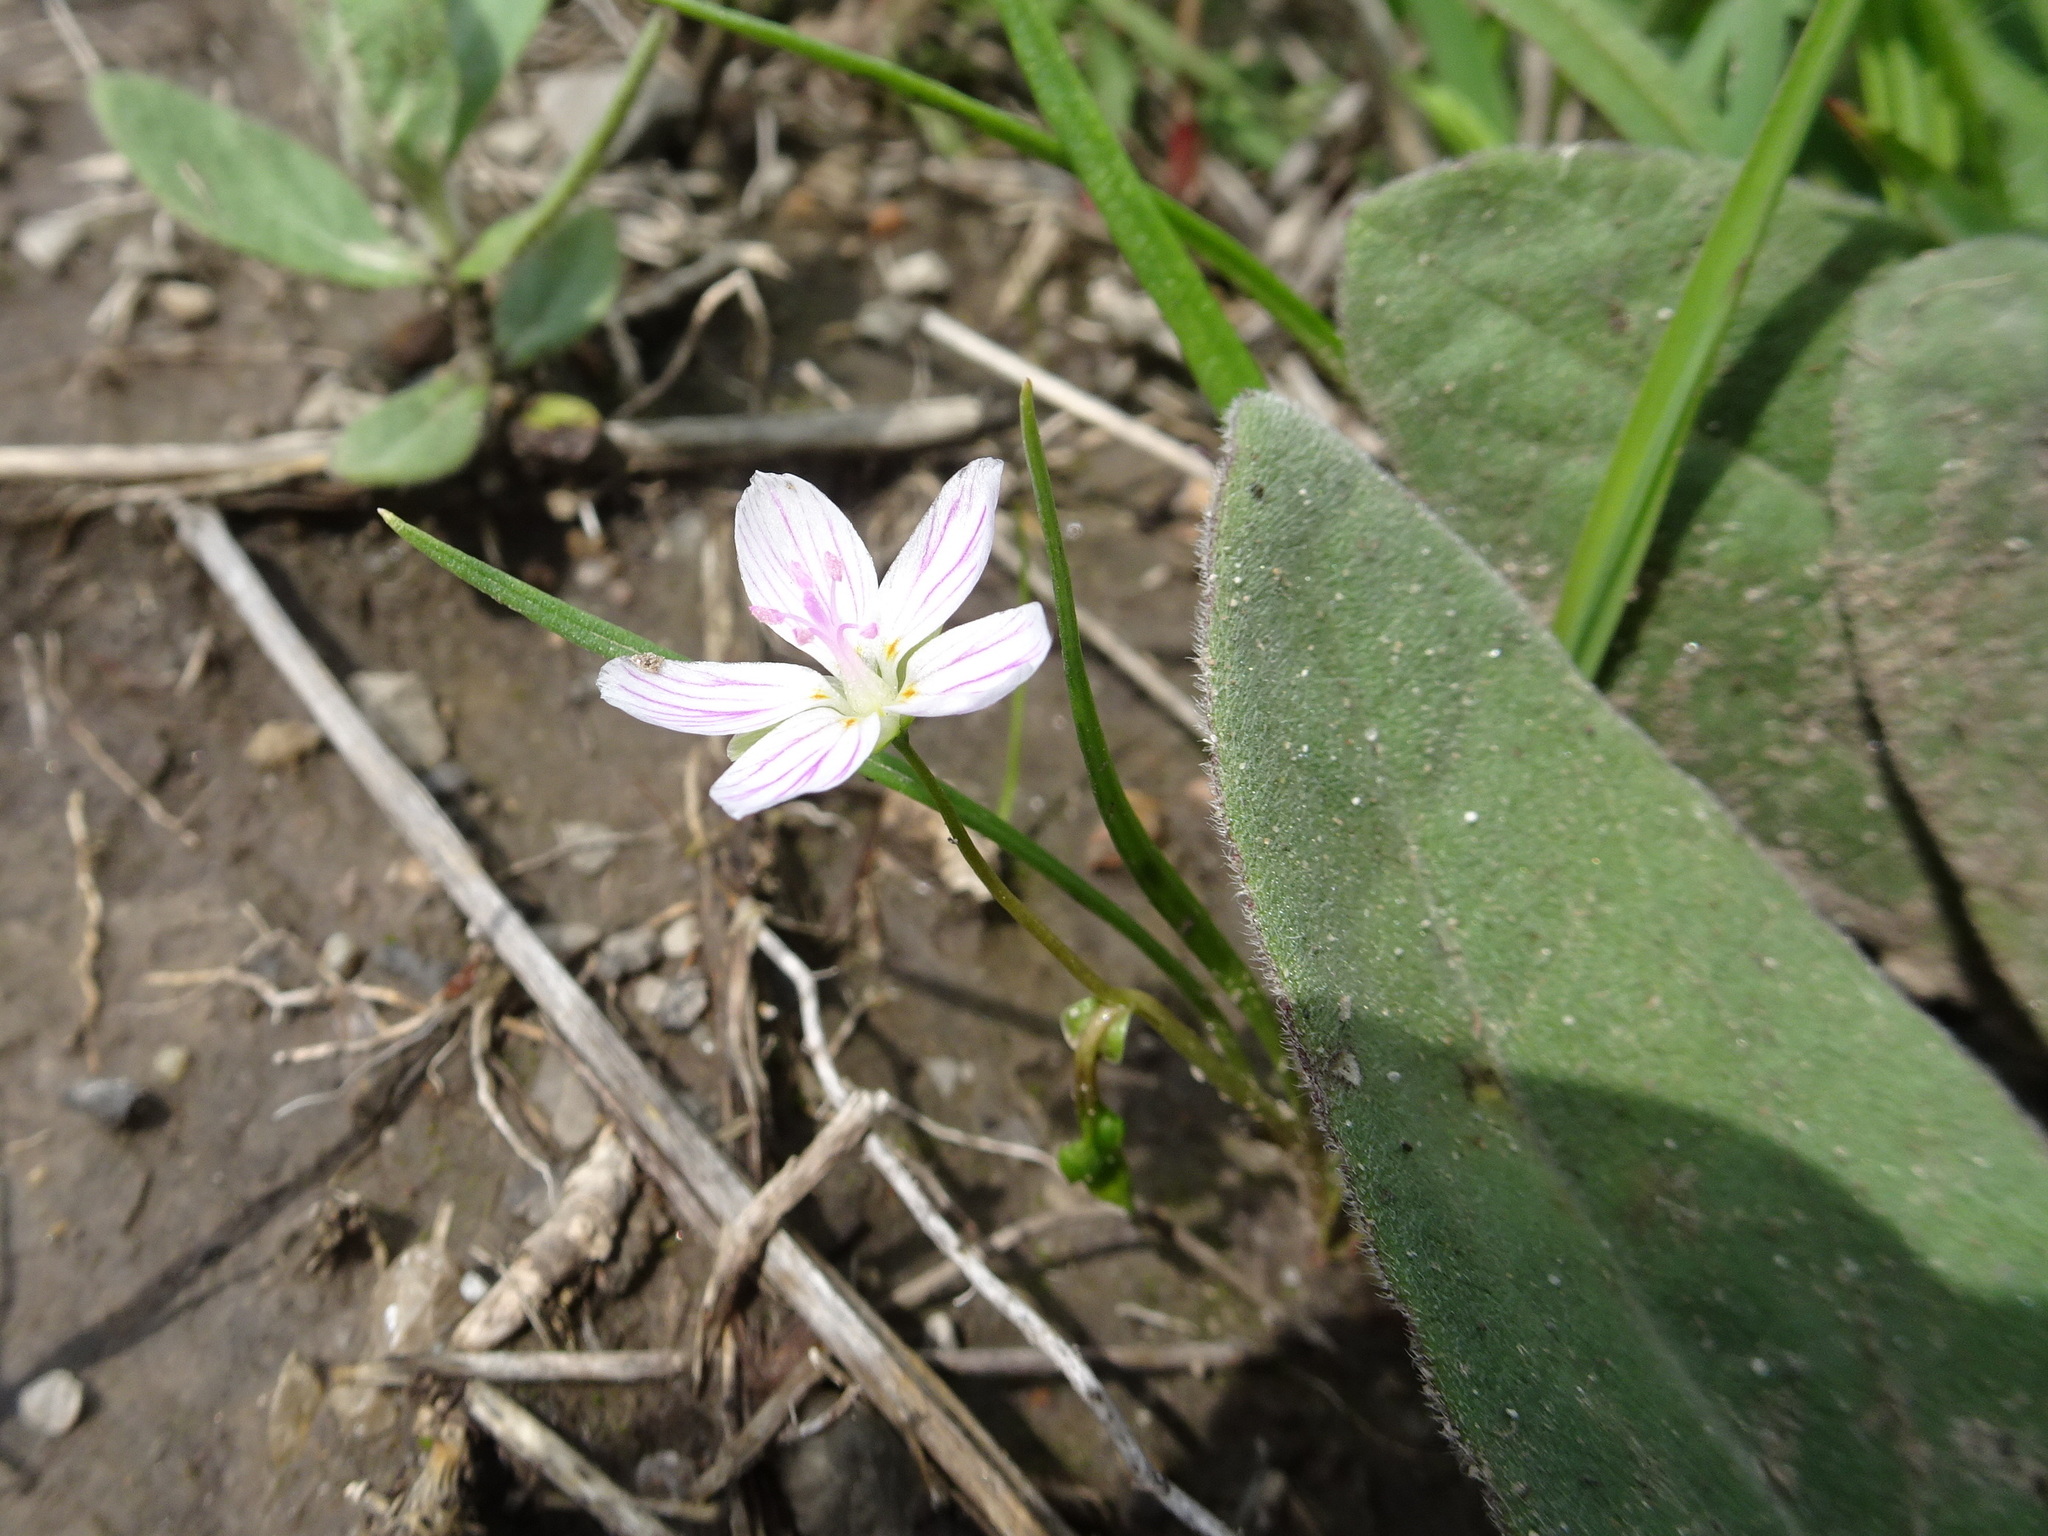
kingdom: Plantae
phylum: Tracheophyta
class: Magnoliopsida
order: Caryophyllales
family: Montiaceae
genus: Claytonia
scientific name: Claytonia virginica
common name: Virginia springbeauty
